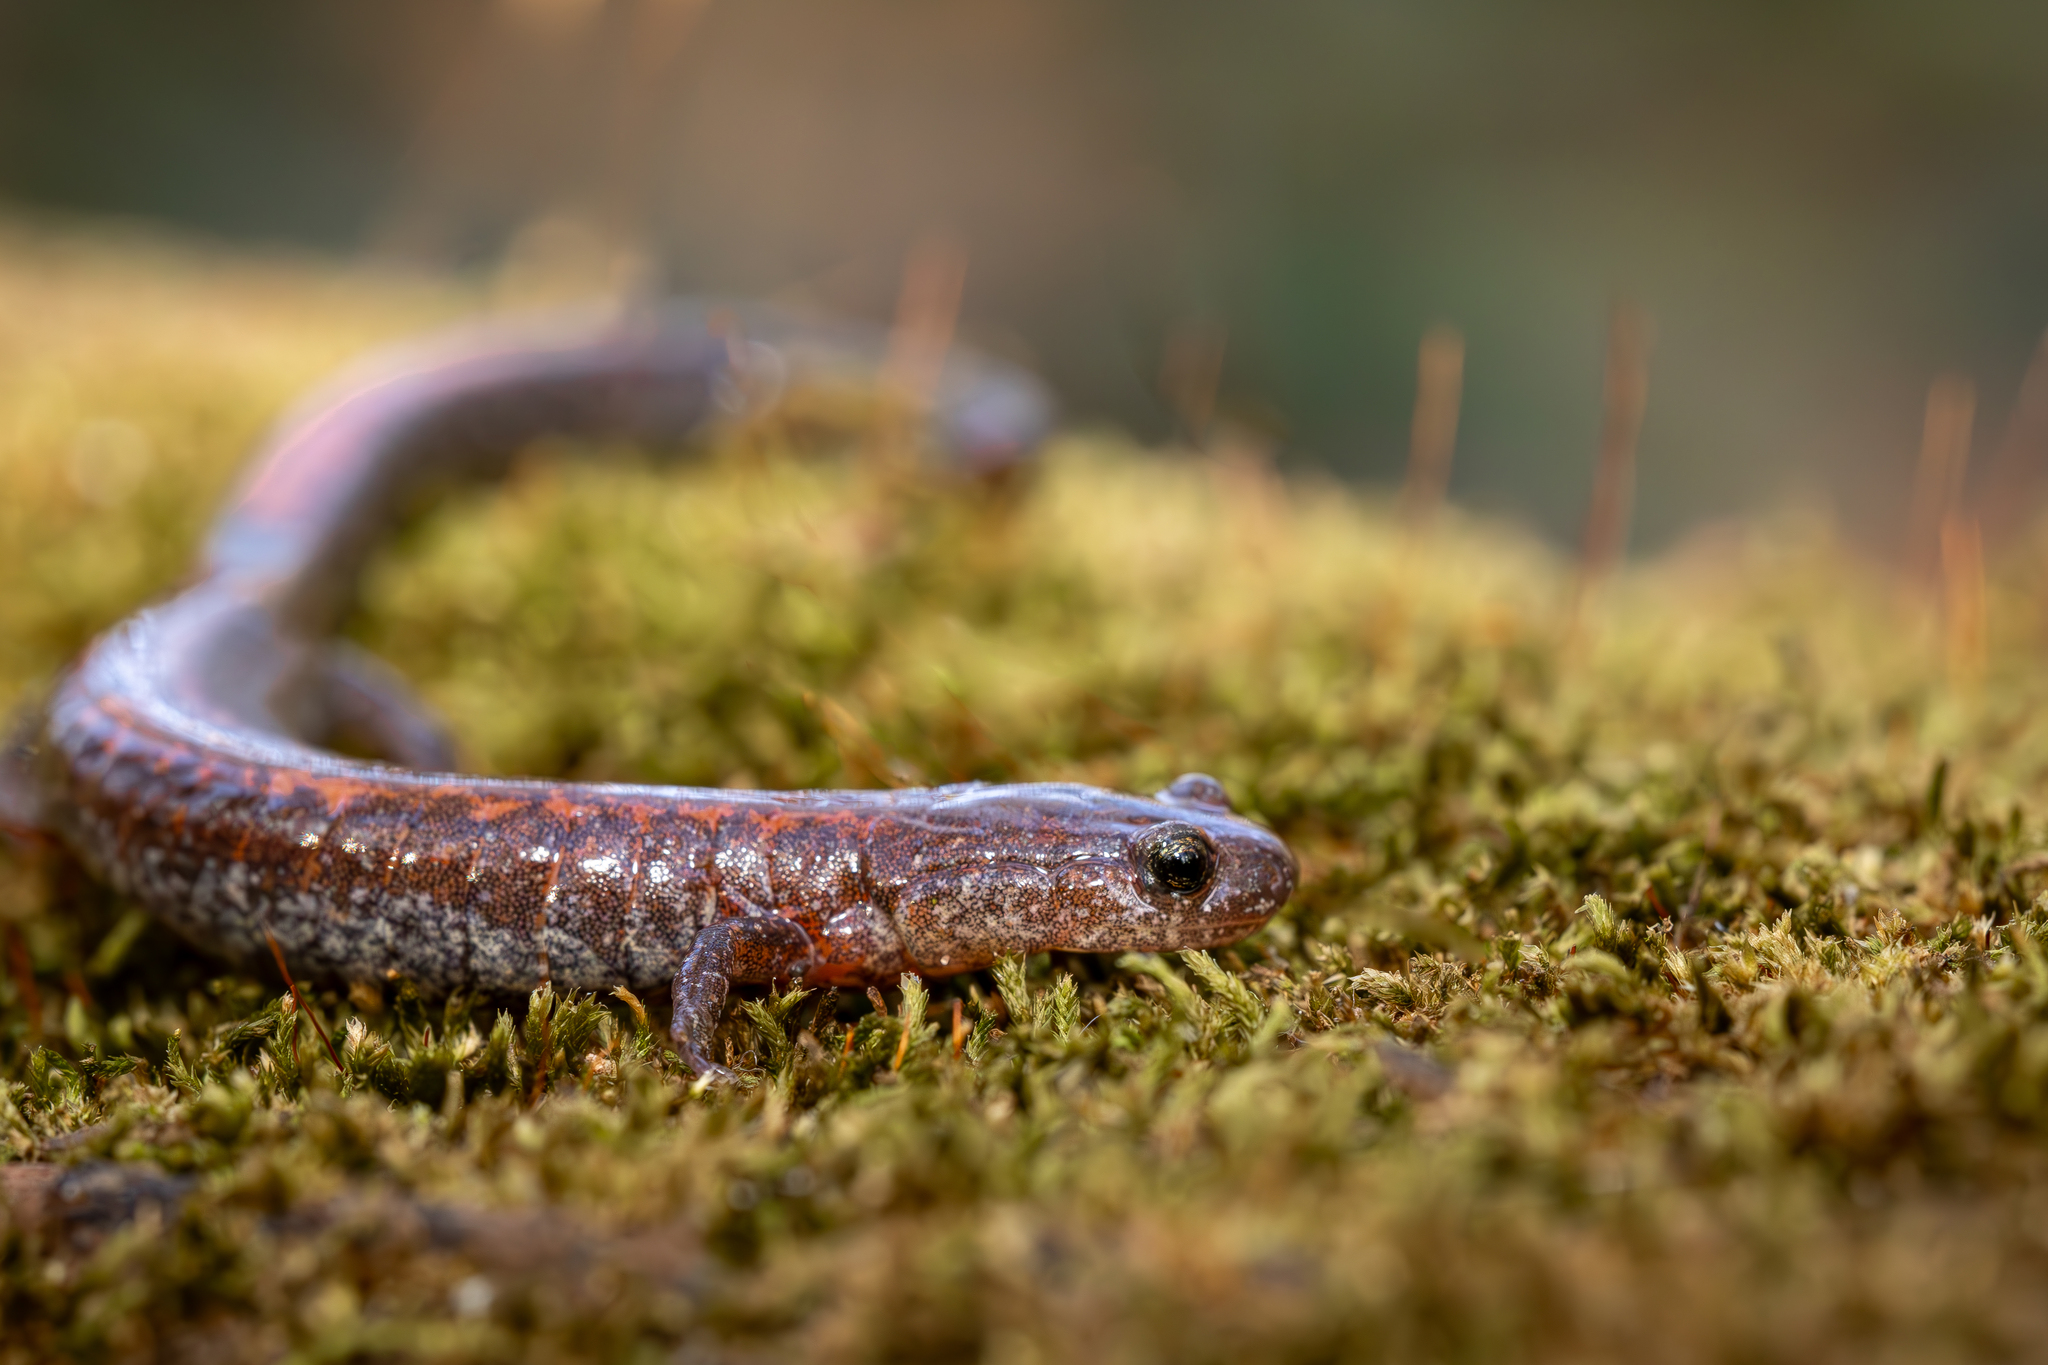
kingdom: Animalia
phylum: Chordata
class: Amphibia
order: Caudata
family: Plethodontidae
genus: Plethodon
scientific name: Plethodon serratus
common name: Southern red-backed salamander
